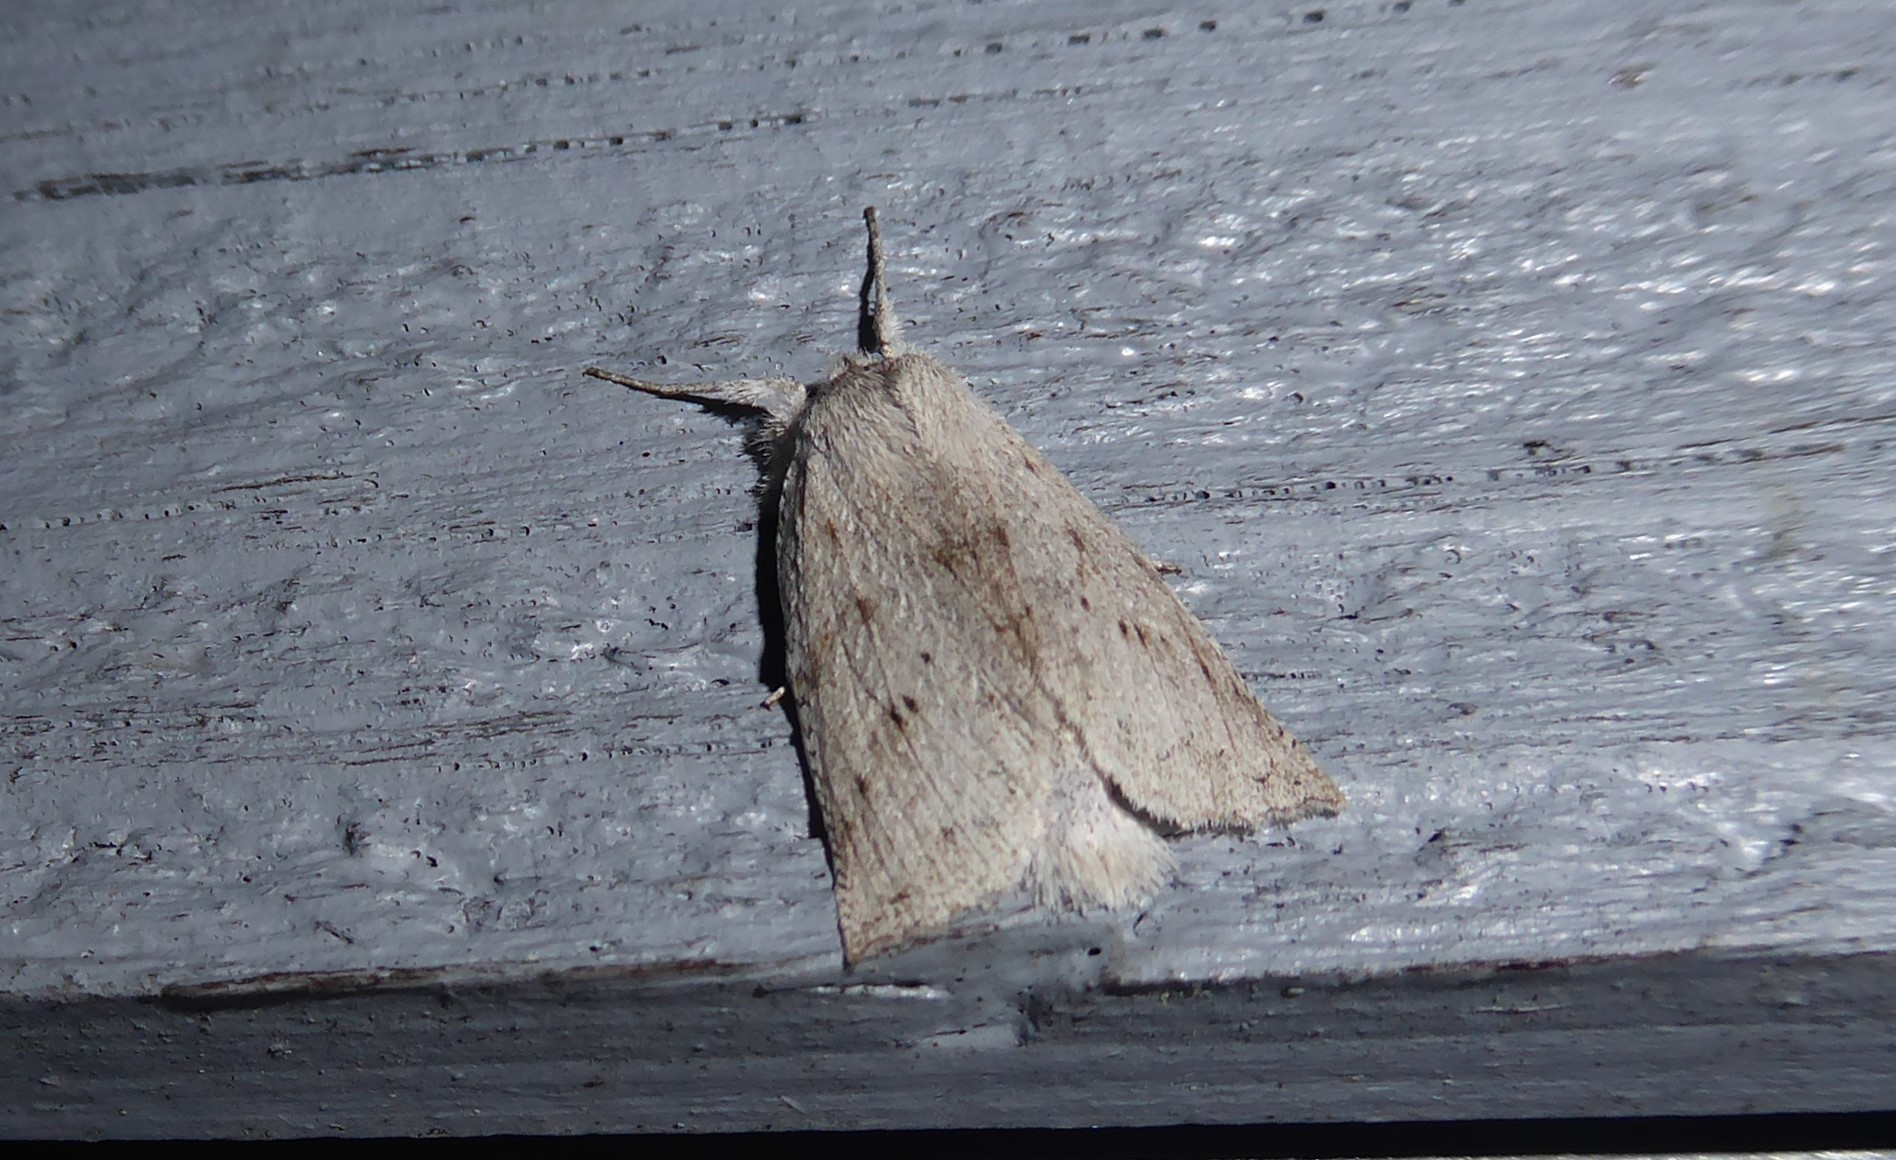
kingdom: Animalia
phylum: Arthropoda
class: Insecta
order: Lepidoptera
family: Geometridae
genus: Declana
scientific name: Declana leptomera
